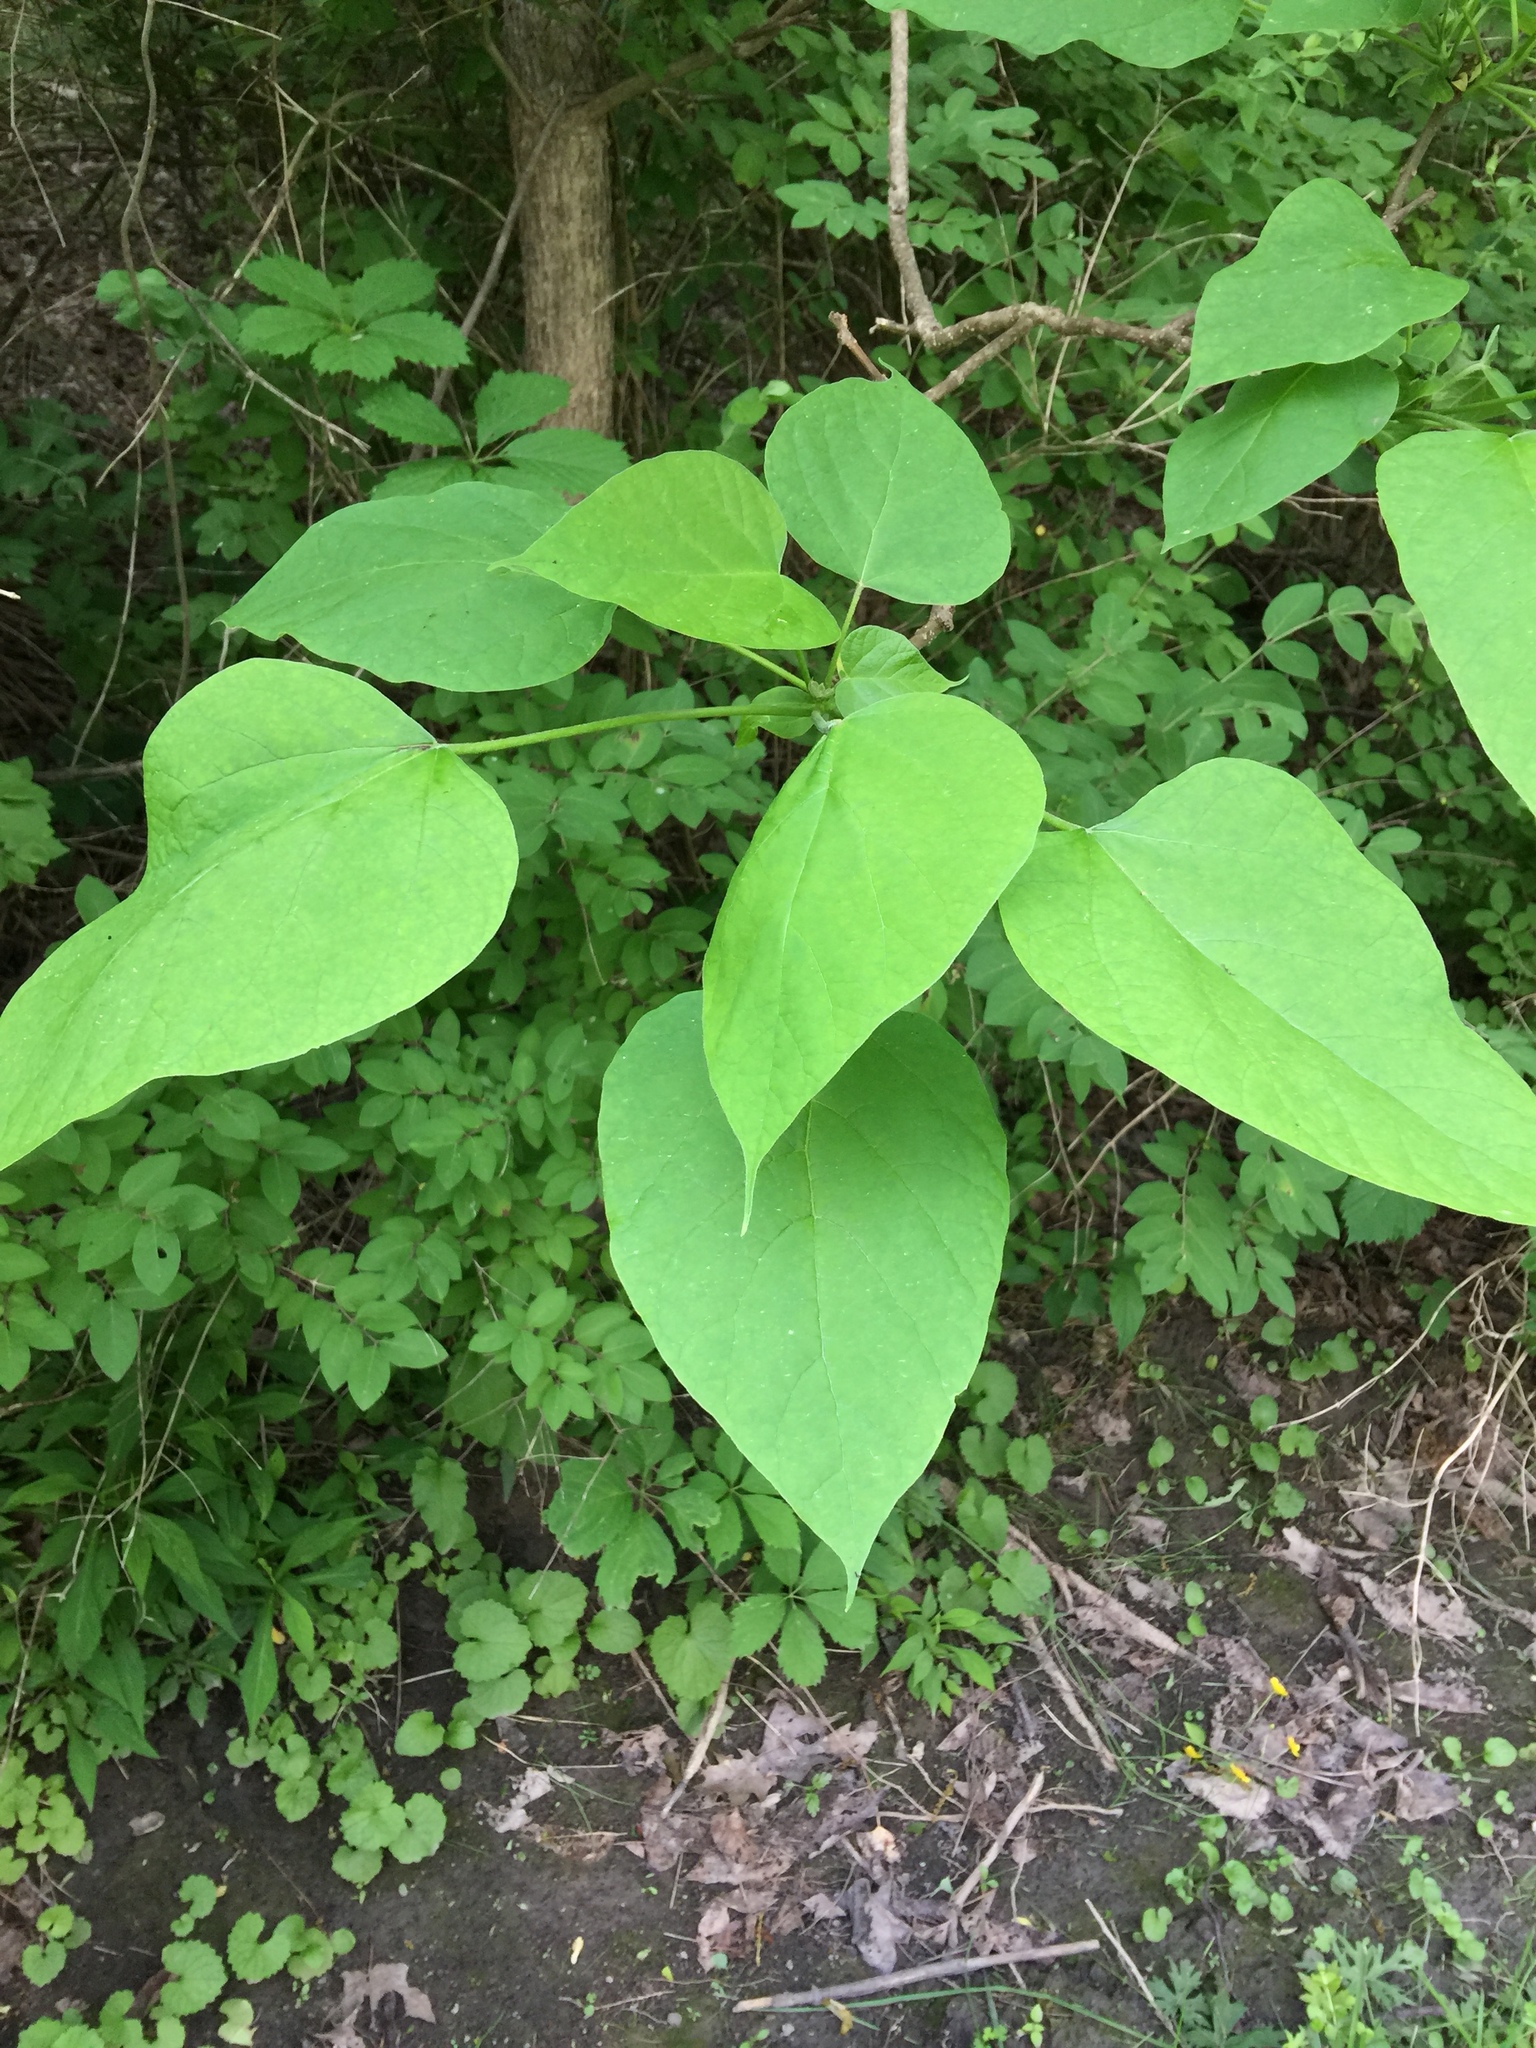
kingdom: Plantae
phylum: Tracheophyta
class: Magnoliopsida
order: Lamiales
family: Bignoniaceae
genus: Catalpa
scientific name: Catalpa speciosa
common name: Northern catalpa
